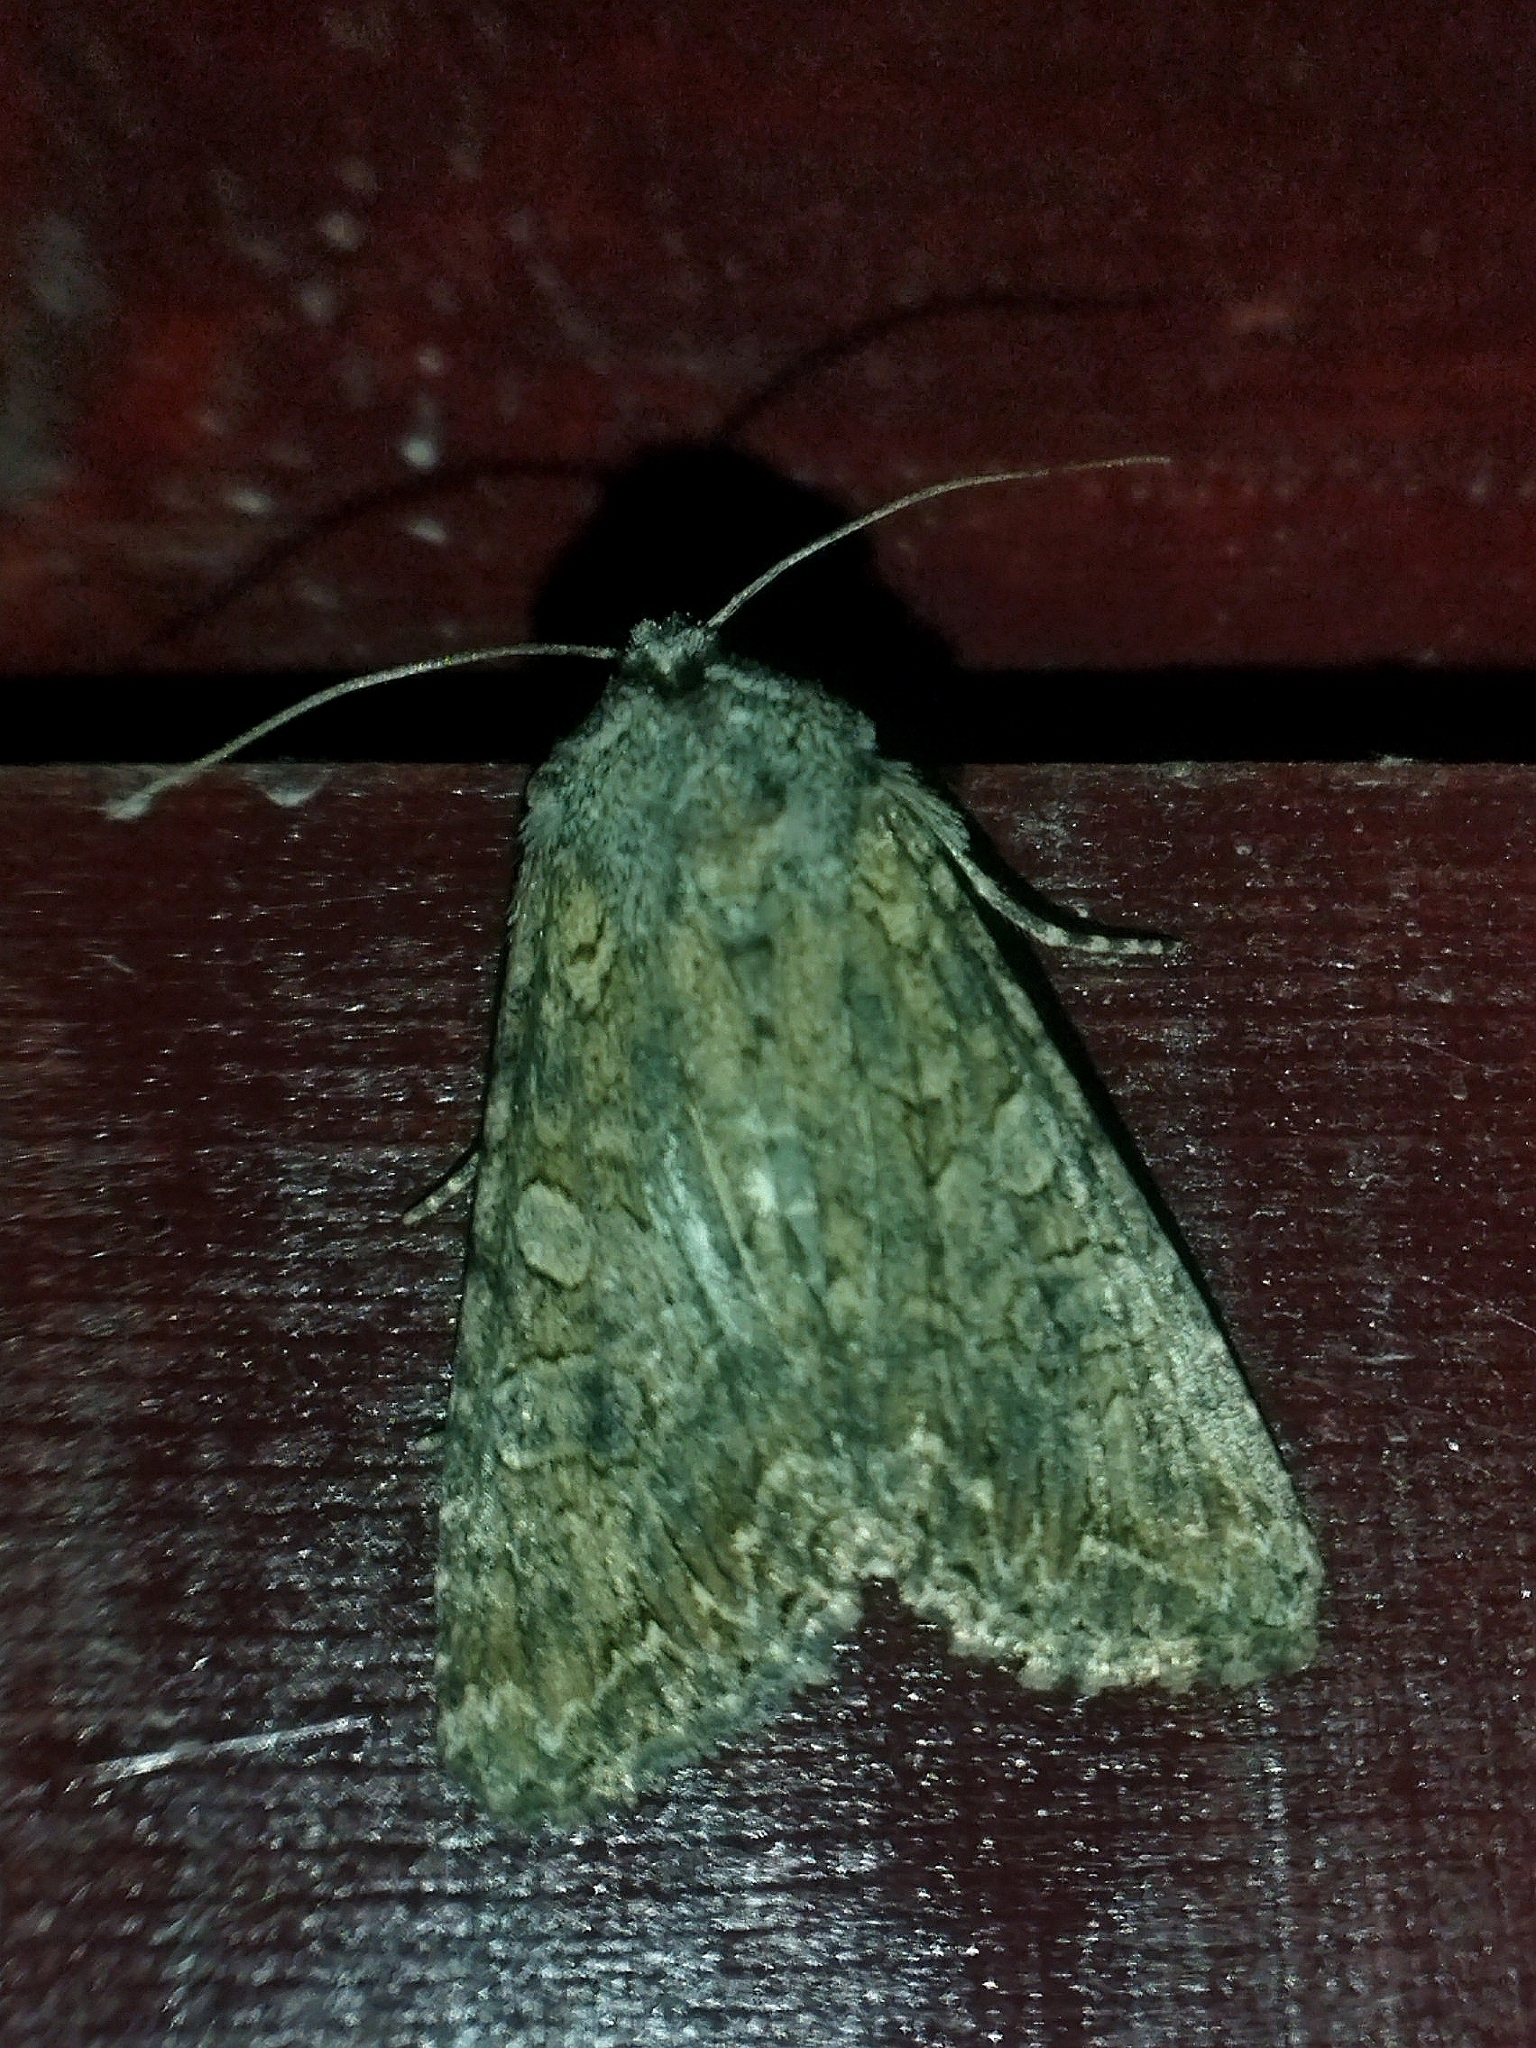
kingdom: Animalia
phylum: Arthropoda
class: Insecta
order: Lepidoptera
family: Noctuidae
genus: Anarta
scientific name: Anarta trifolii
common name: Clover cutworm moth
